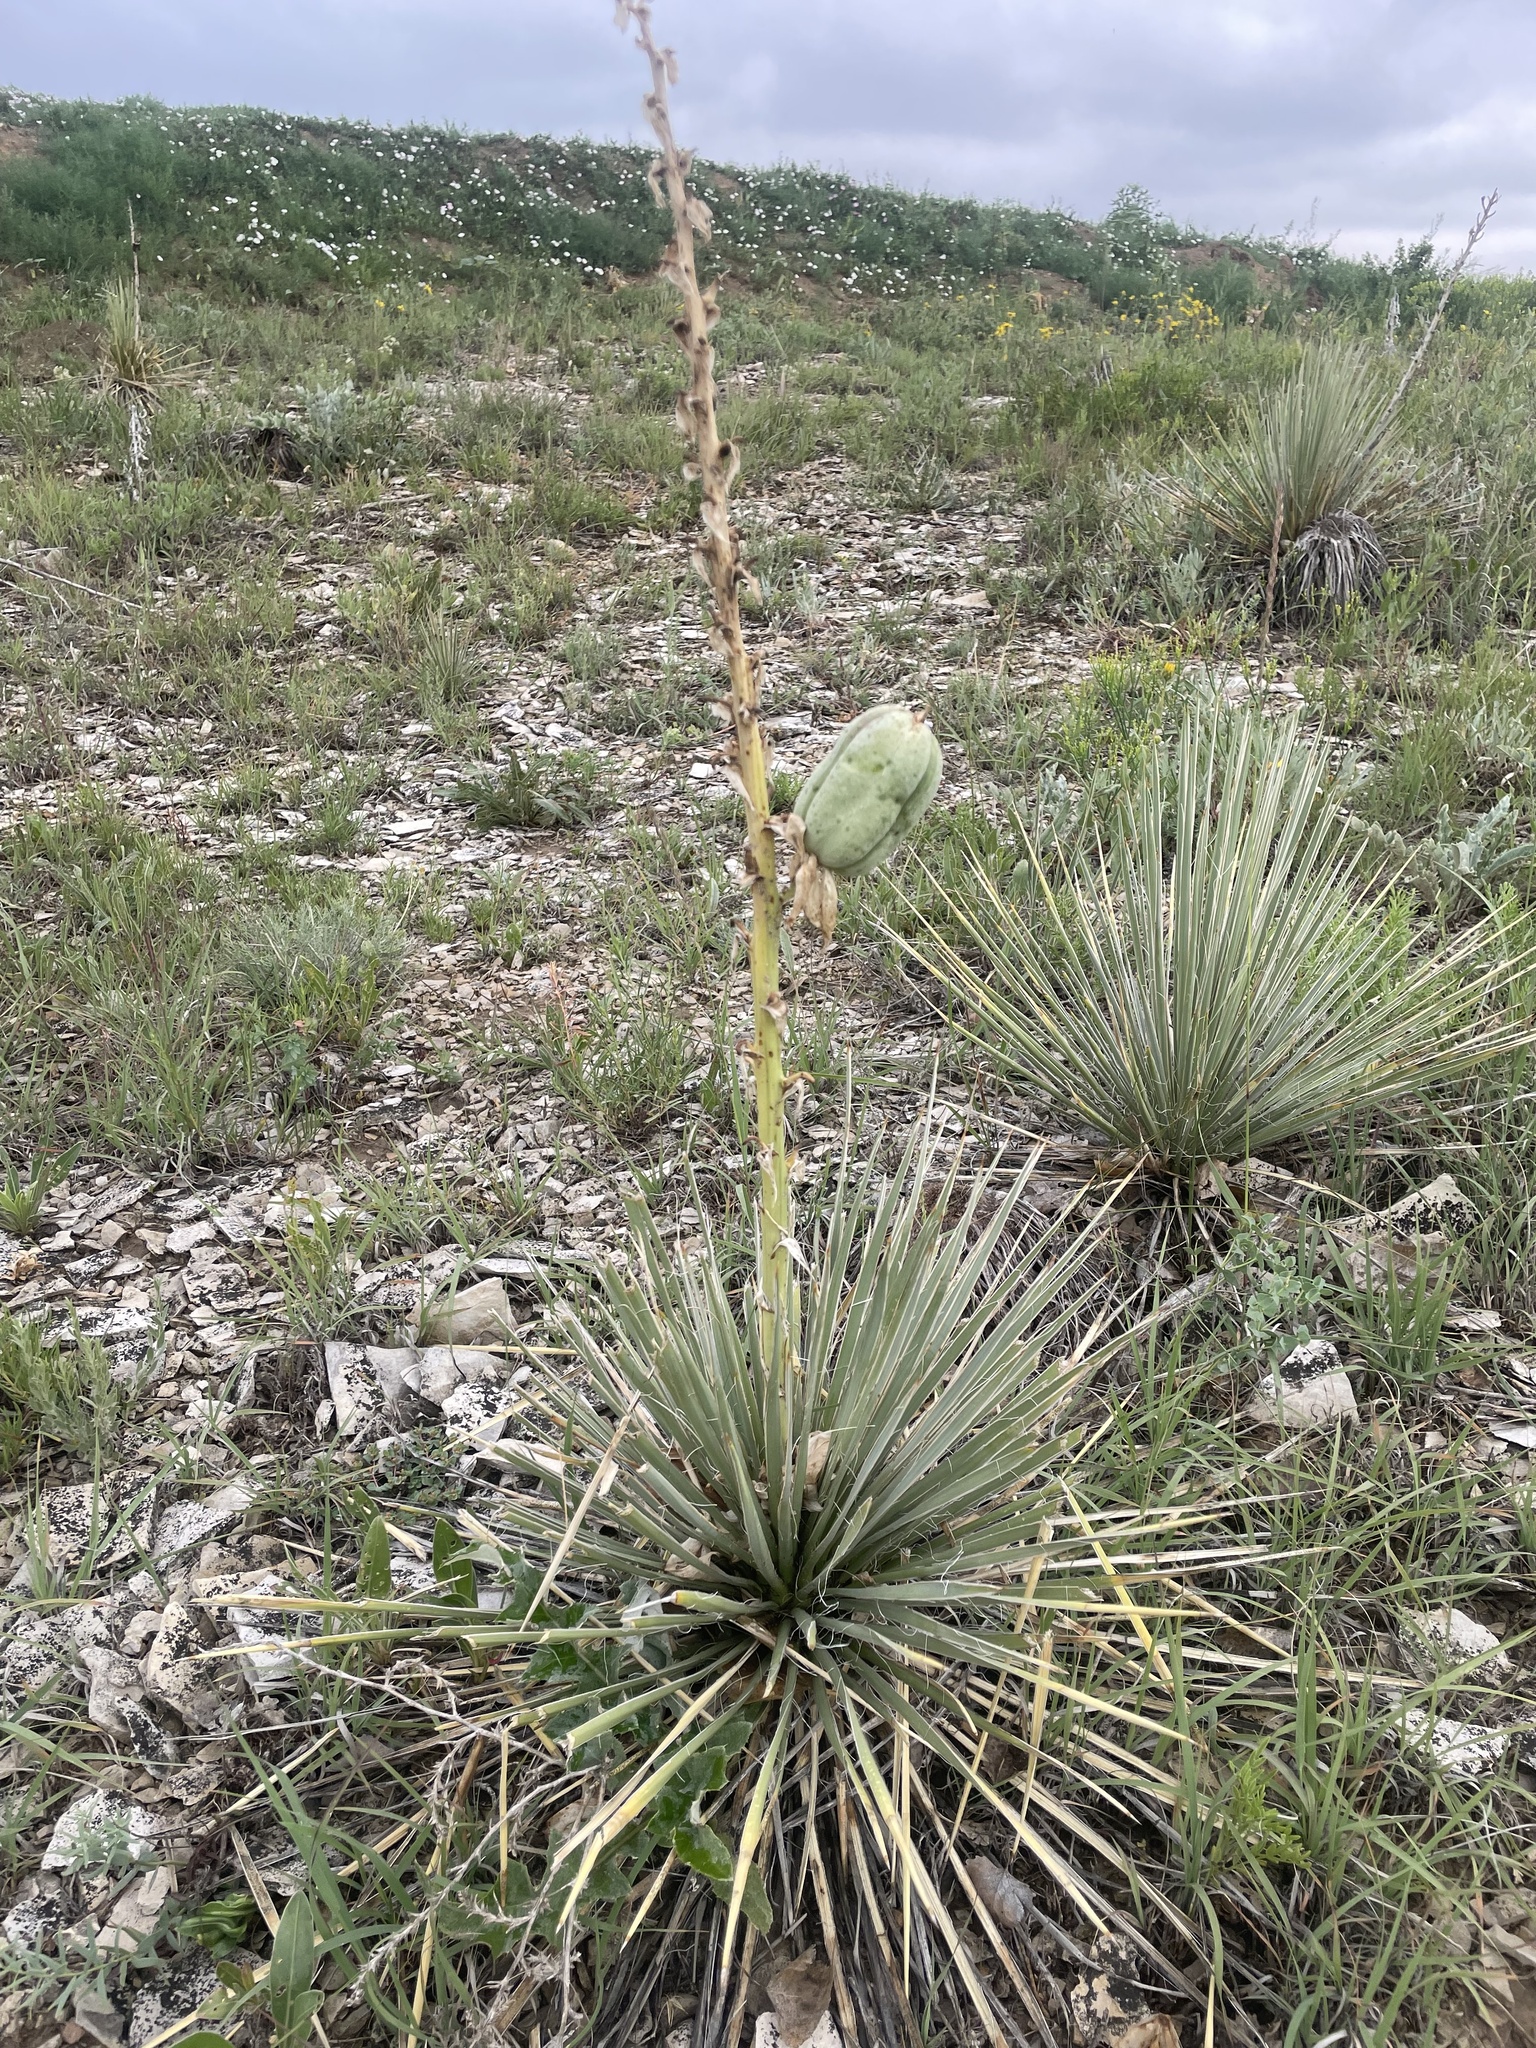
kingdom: Plantae
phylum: Tracheophyta
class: Liliopsida
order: Asparagales
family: Asparagaceae
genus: Yucca
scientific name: Yucca glauca
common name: Great plains yucca
